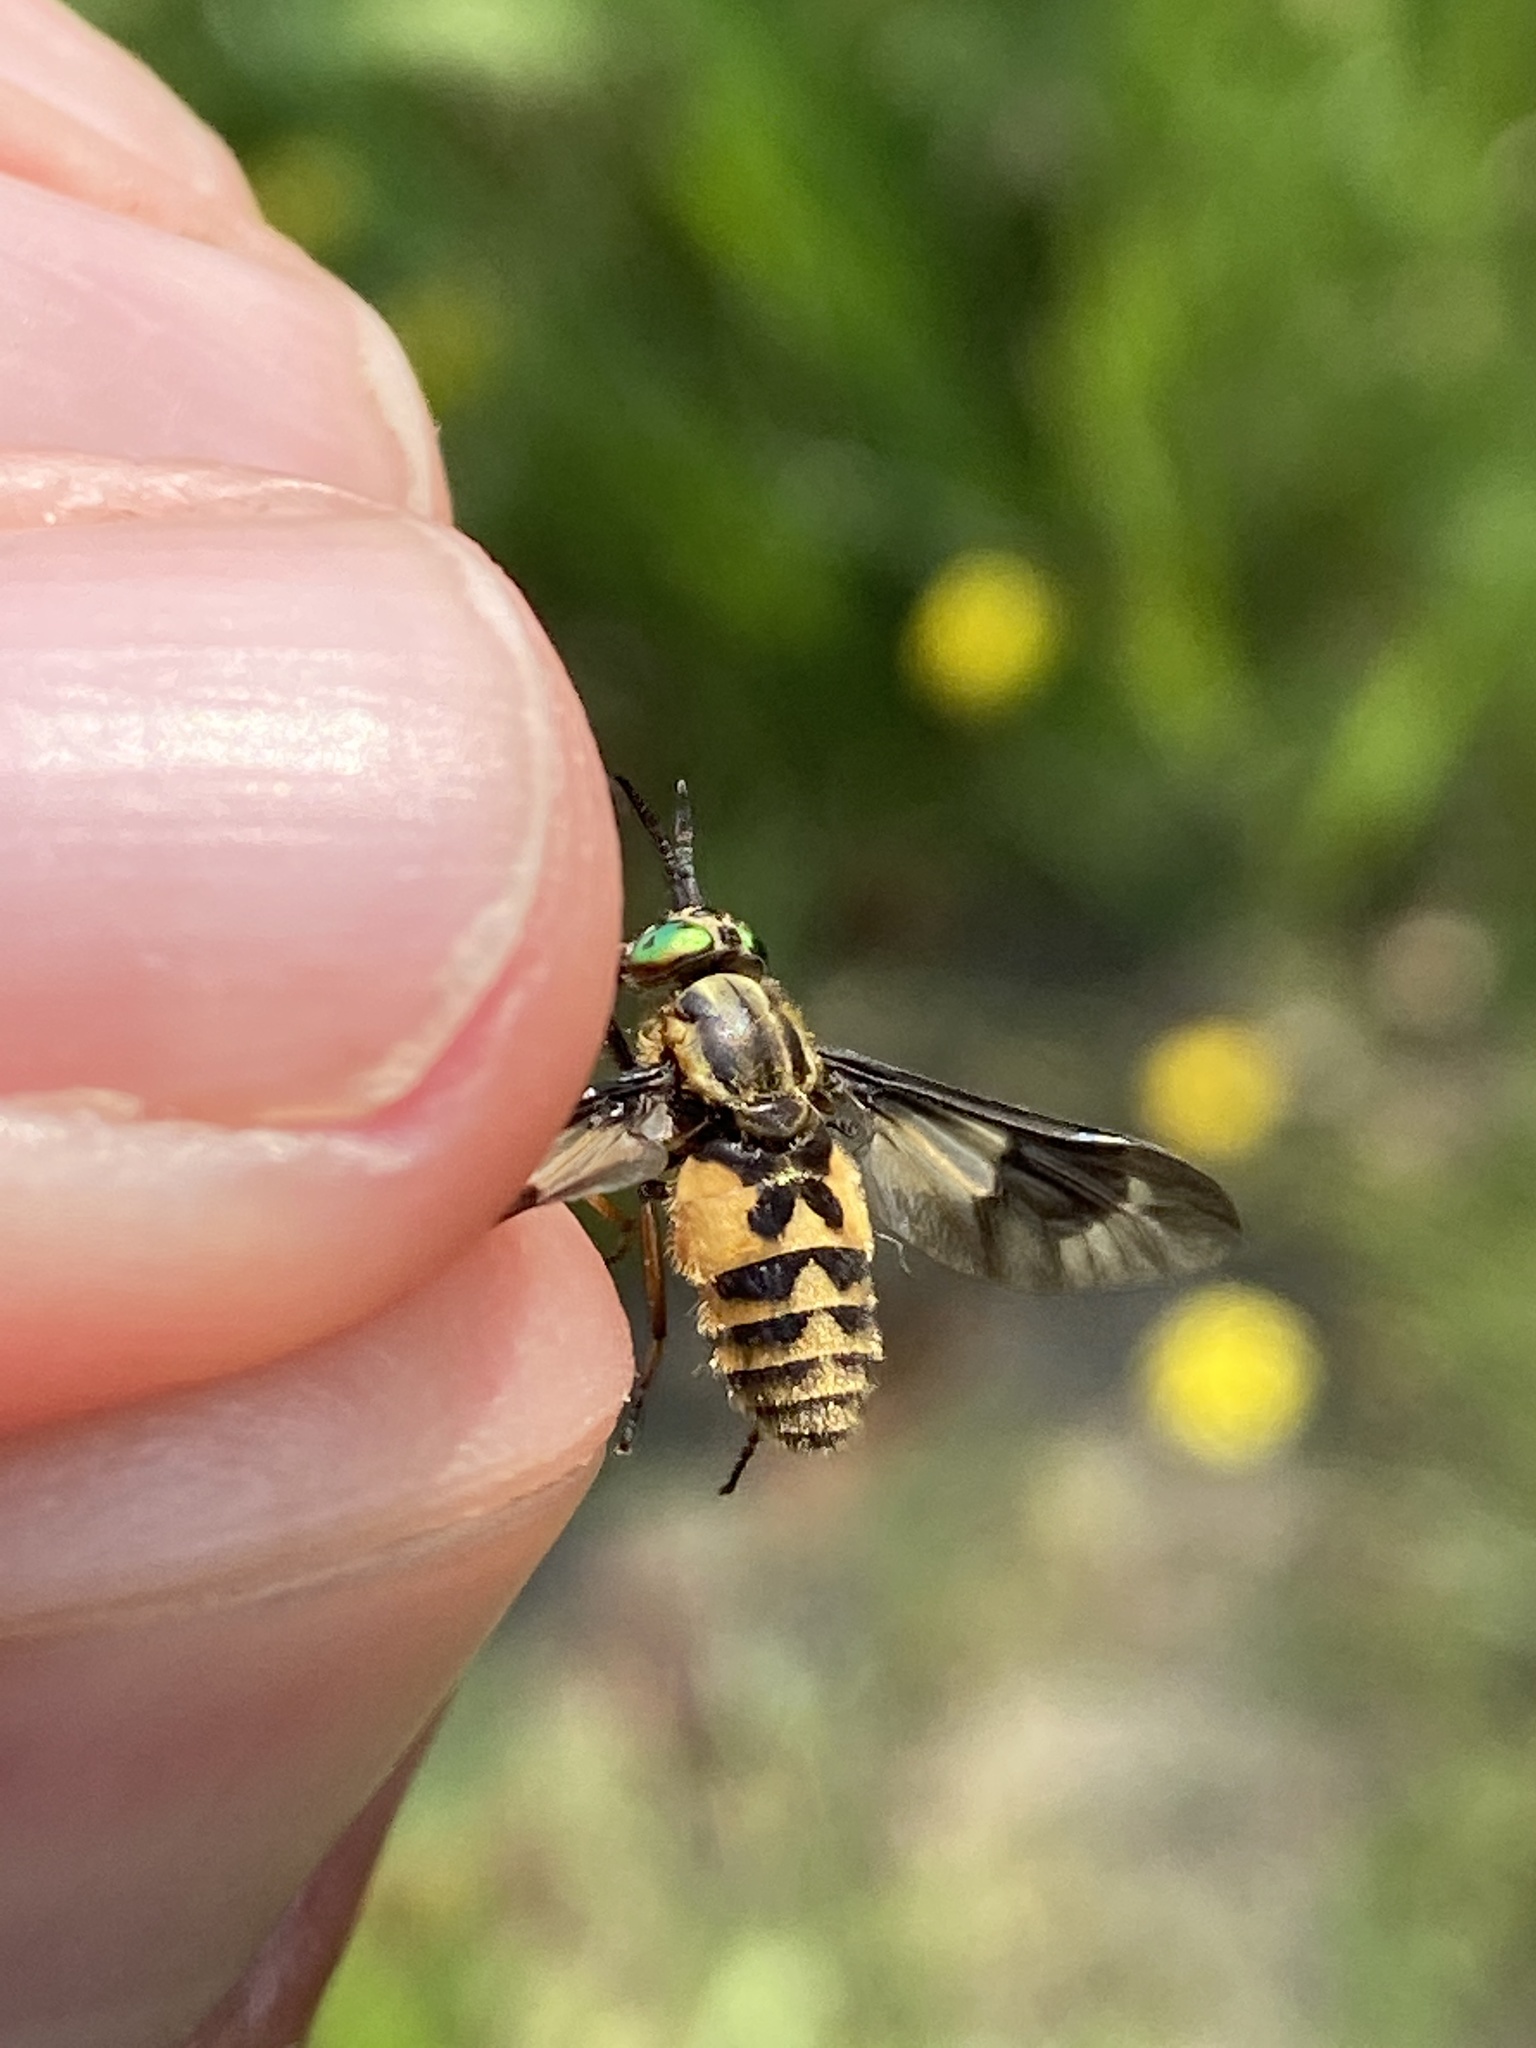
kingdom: Animalia
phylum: Arthropoda
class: Insecta
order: Diptera
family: Tabanidae
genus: Chrysops
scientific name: Chrysops relictus
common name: Twin-lobed deerfly
